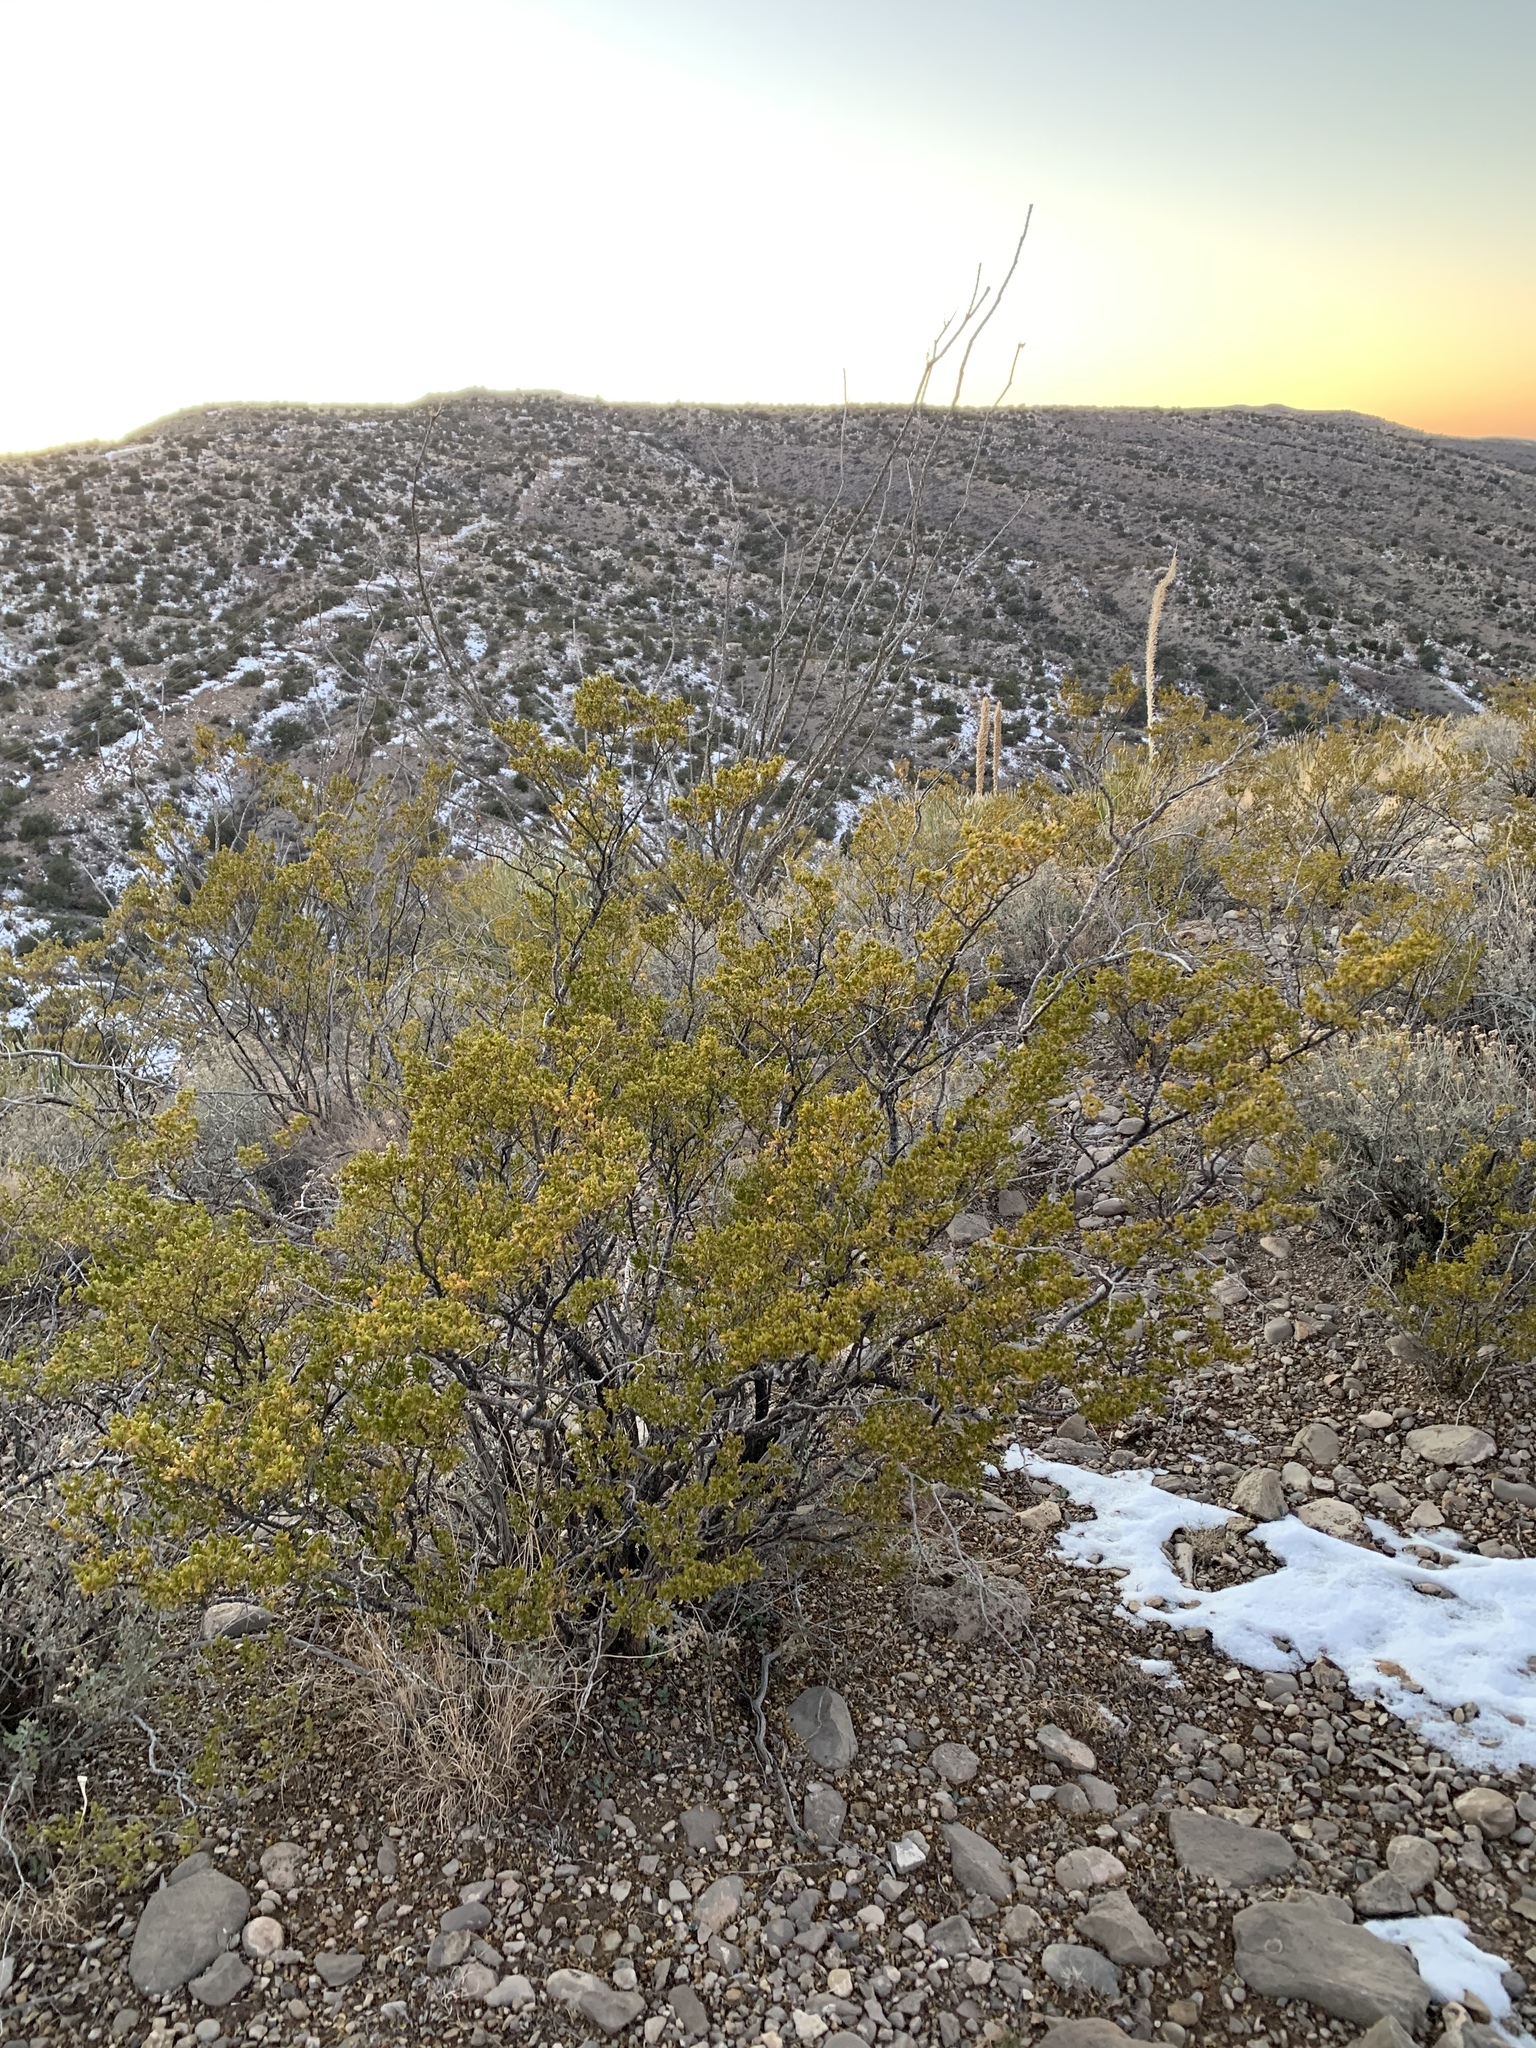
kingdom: Plantae
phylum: Tracheophyta
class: Magnoliopsida
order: Zygophyllales
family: Zygophyllaceae
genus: Larrea
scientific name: Larrea tridentata
